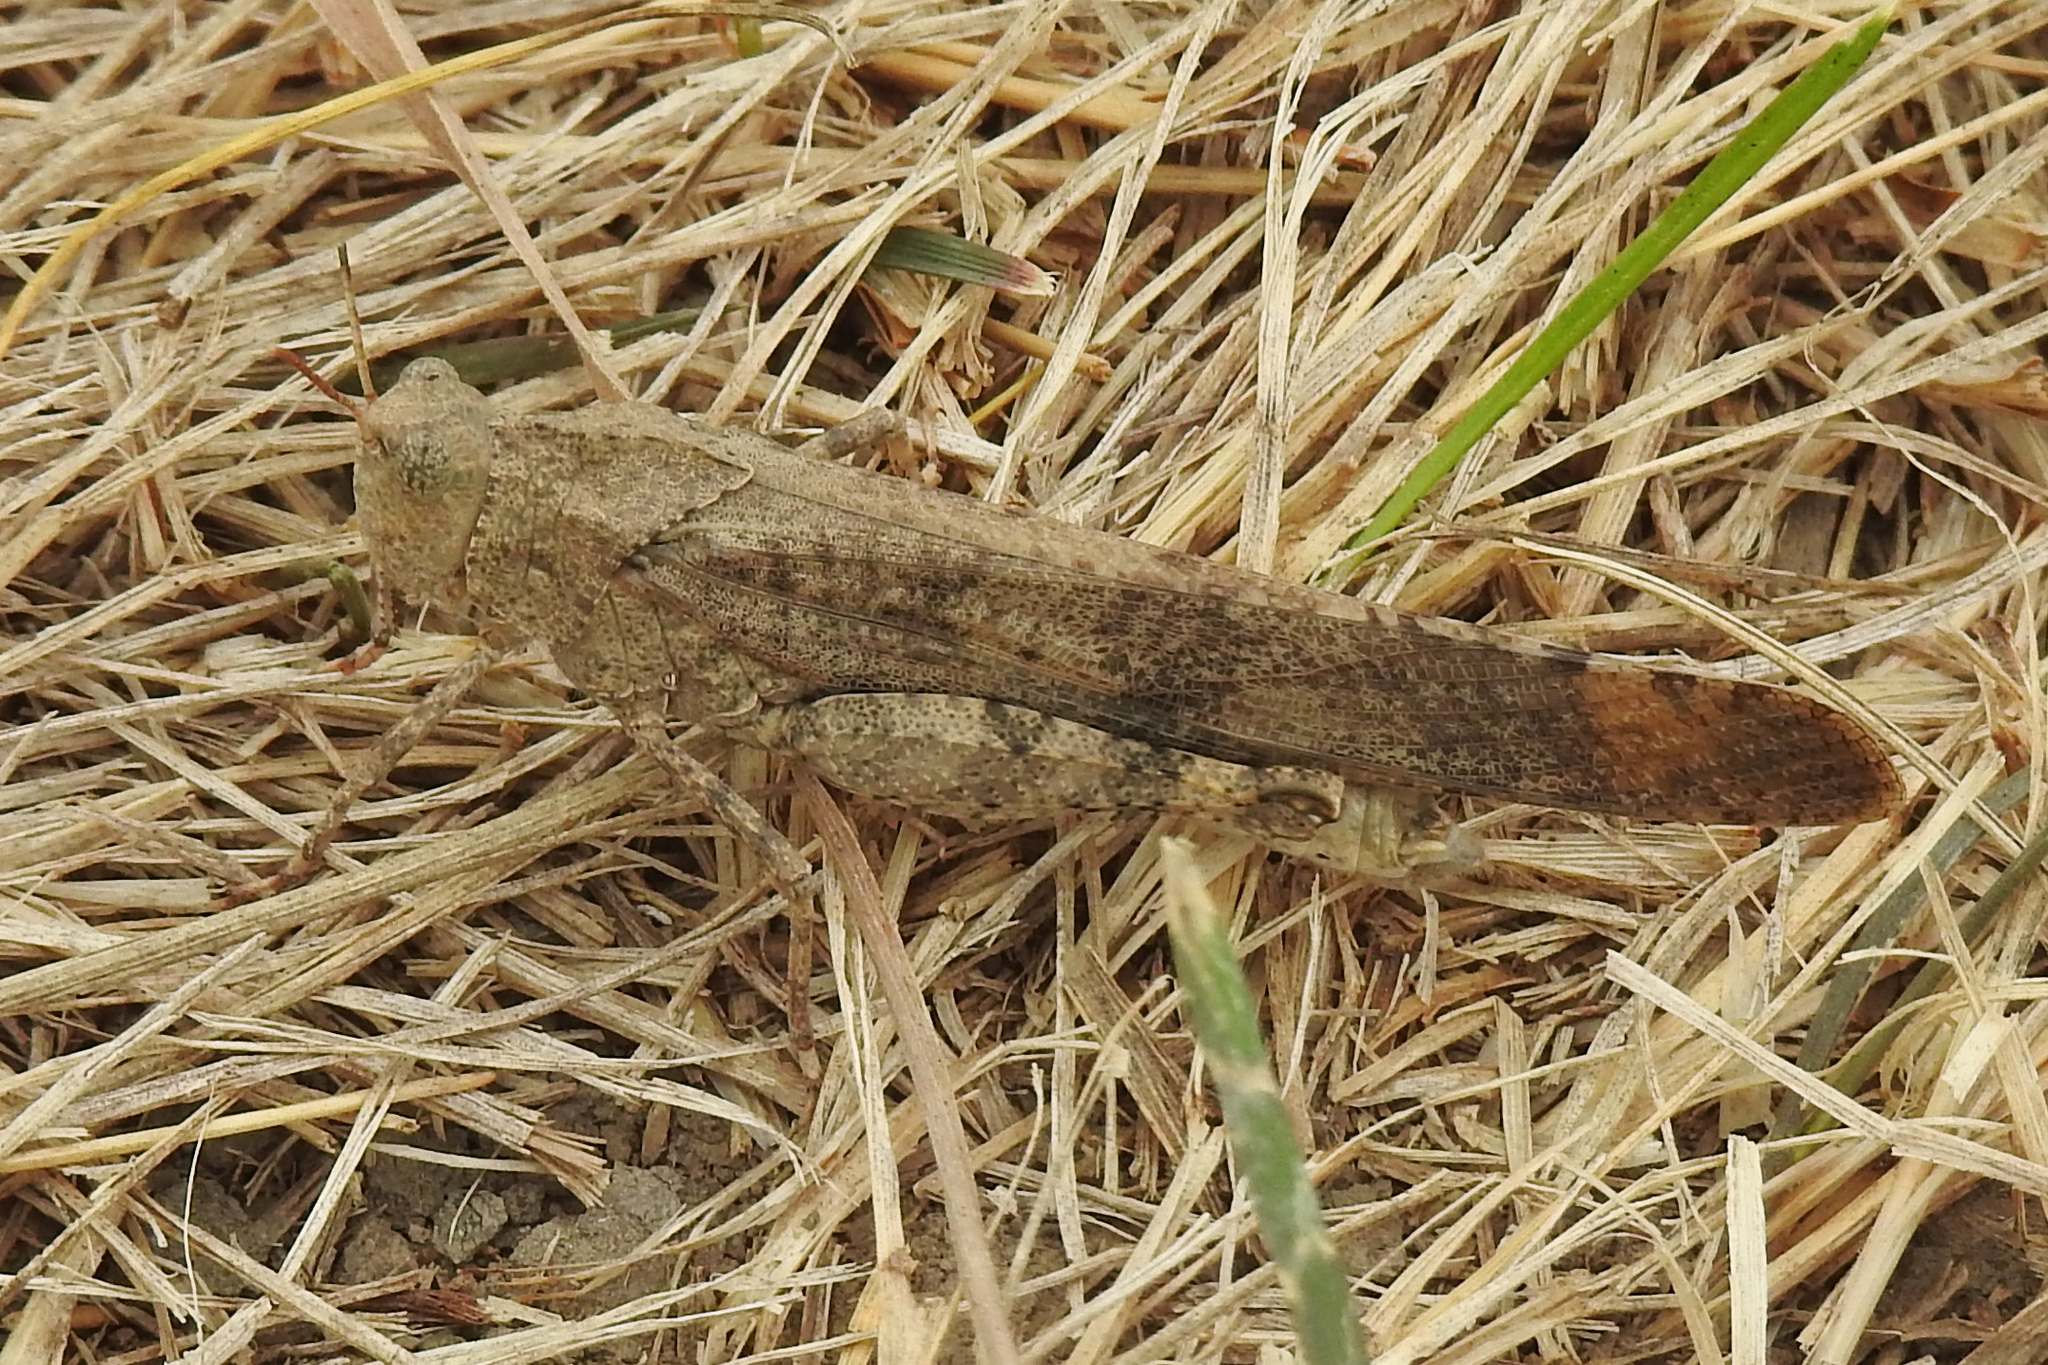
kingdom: Animalia
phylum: Arthropoda
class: Insecta
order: Orthoptera
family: Acrididae
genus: Dissosteira
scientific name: Dissosteira carolina
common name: Carolina grasshopper
